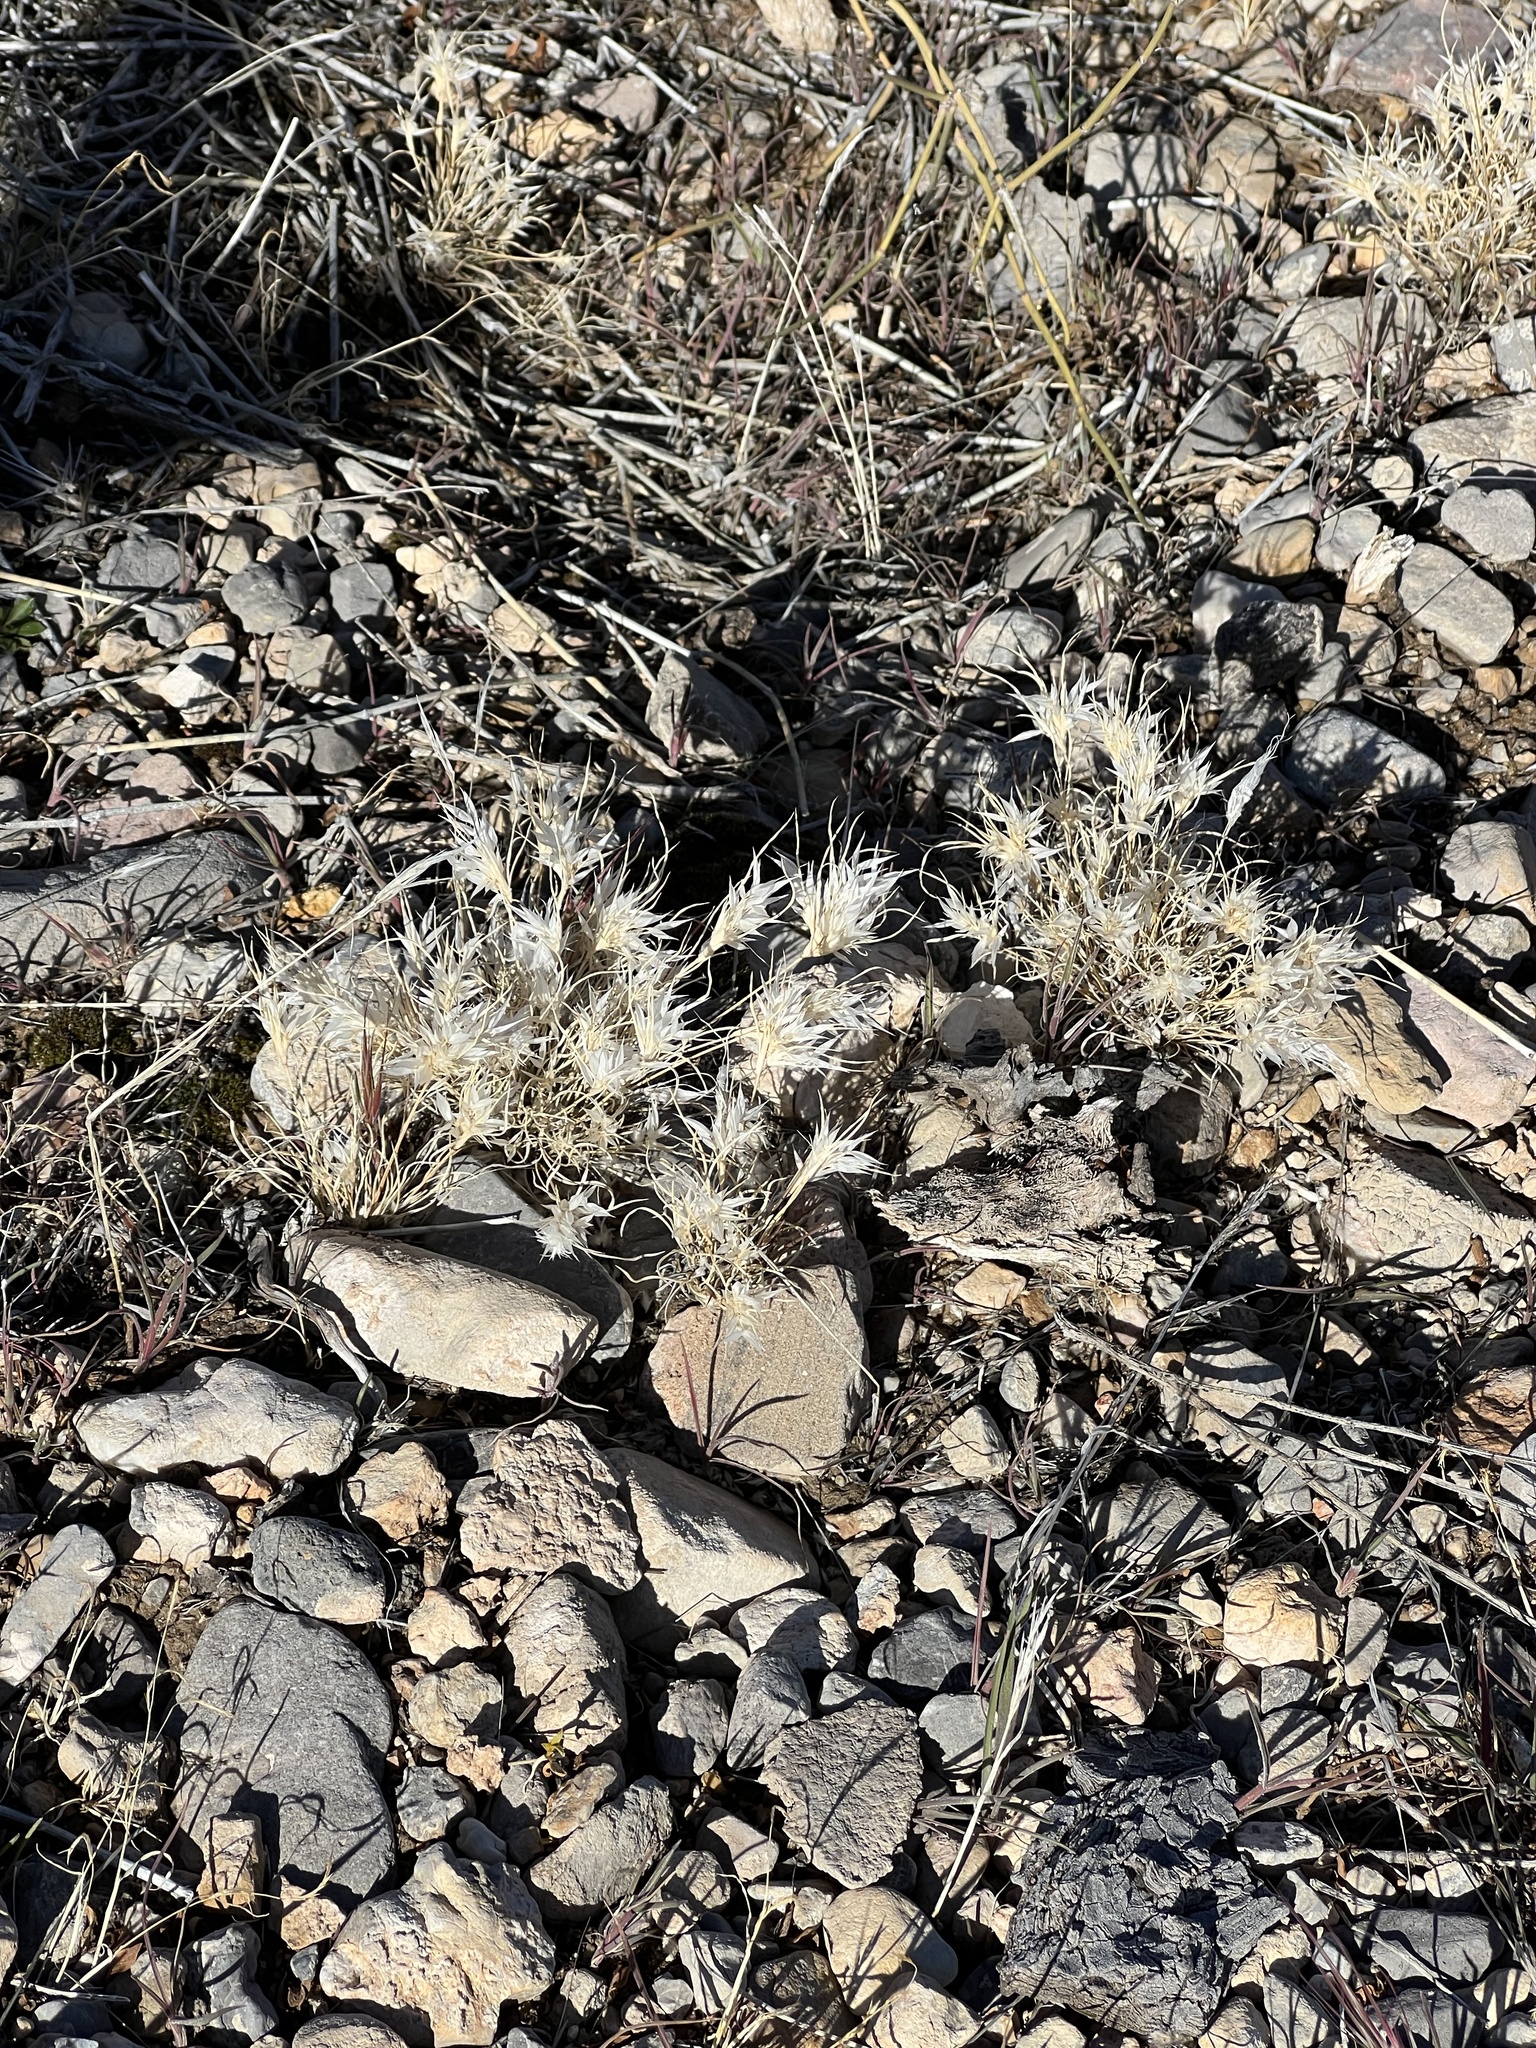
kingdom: Plantae
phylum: Tracheophyta
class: Liliopsida
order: Poales
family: Poaceae
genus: Dasyochloa
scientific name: Dasyochloa pulchella
